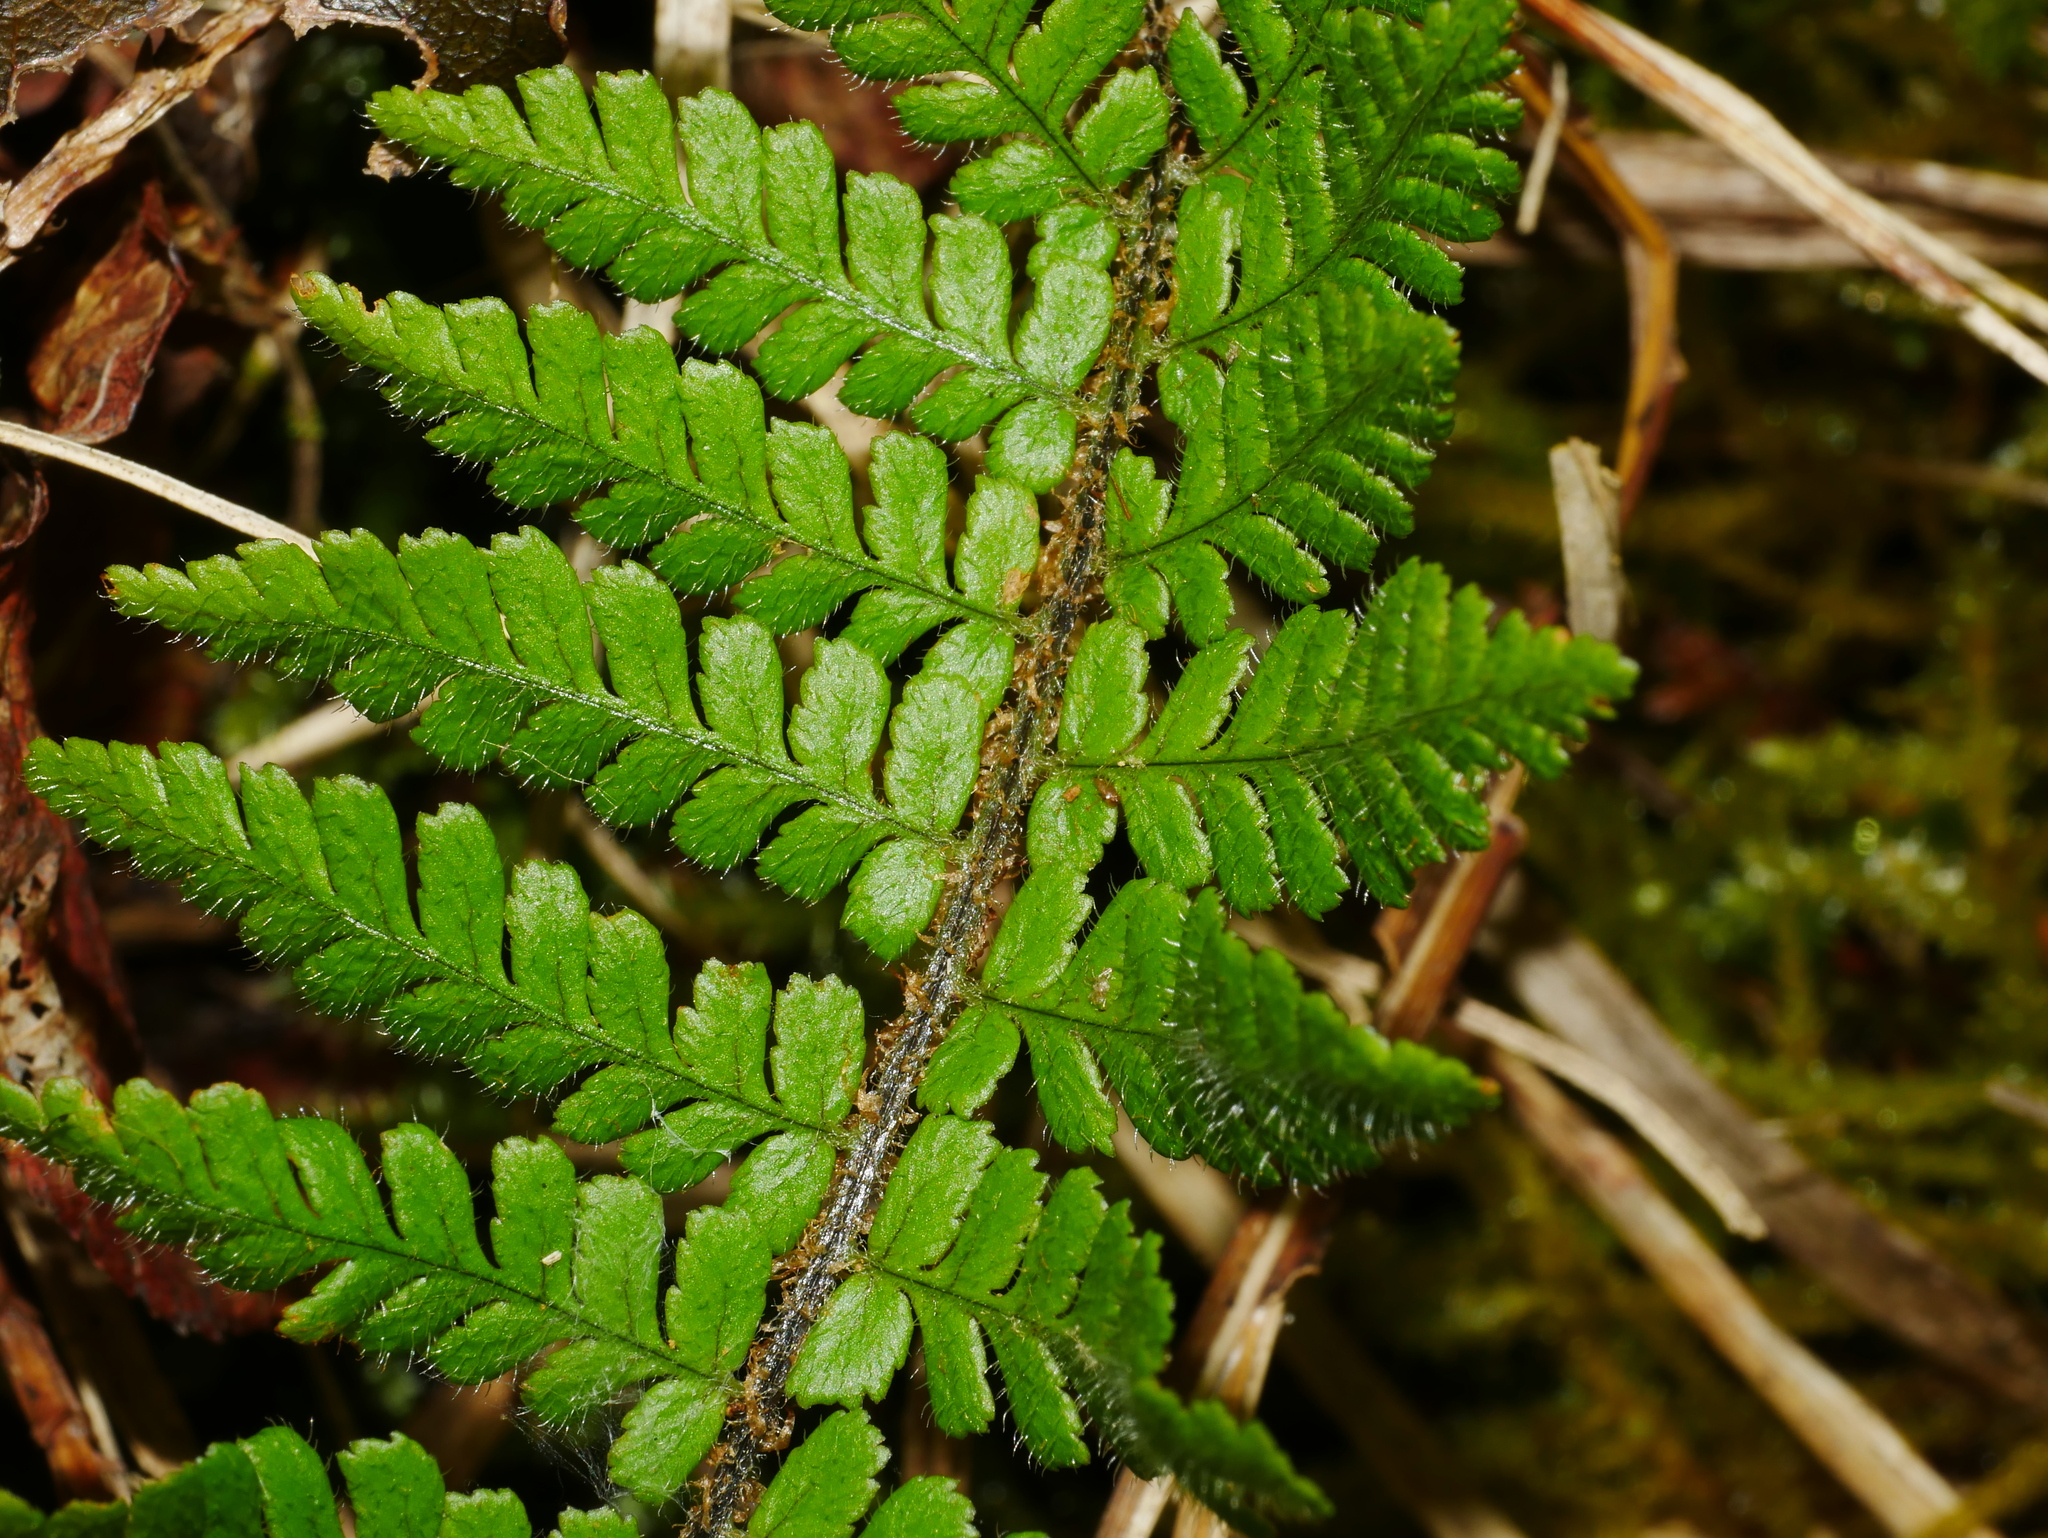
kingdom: Plantae
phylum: Tracheophyta
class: Polypodiopsida
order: Polypodiales
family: Dryopteridaceae
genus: Dryopteris
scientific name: Dryopteris transmorrisonensis
